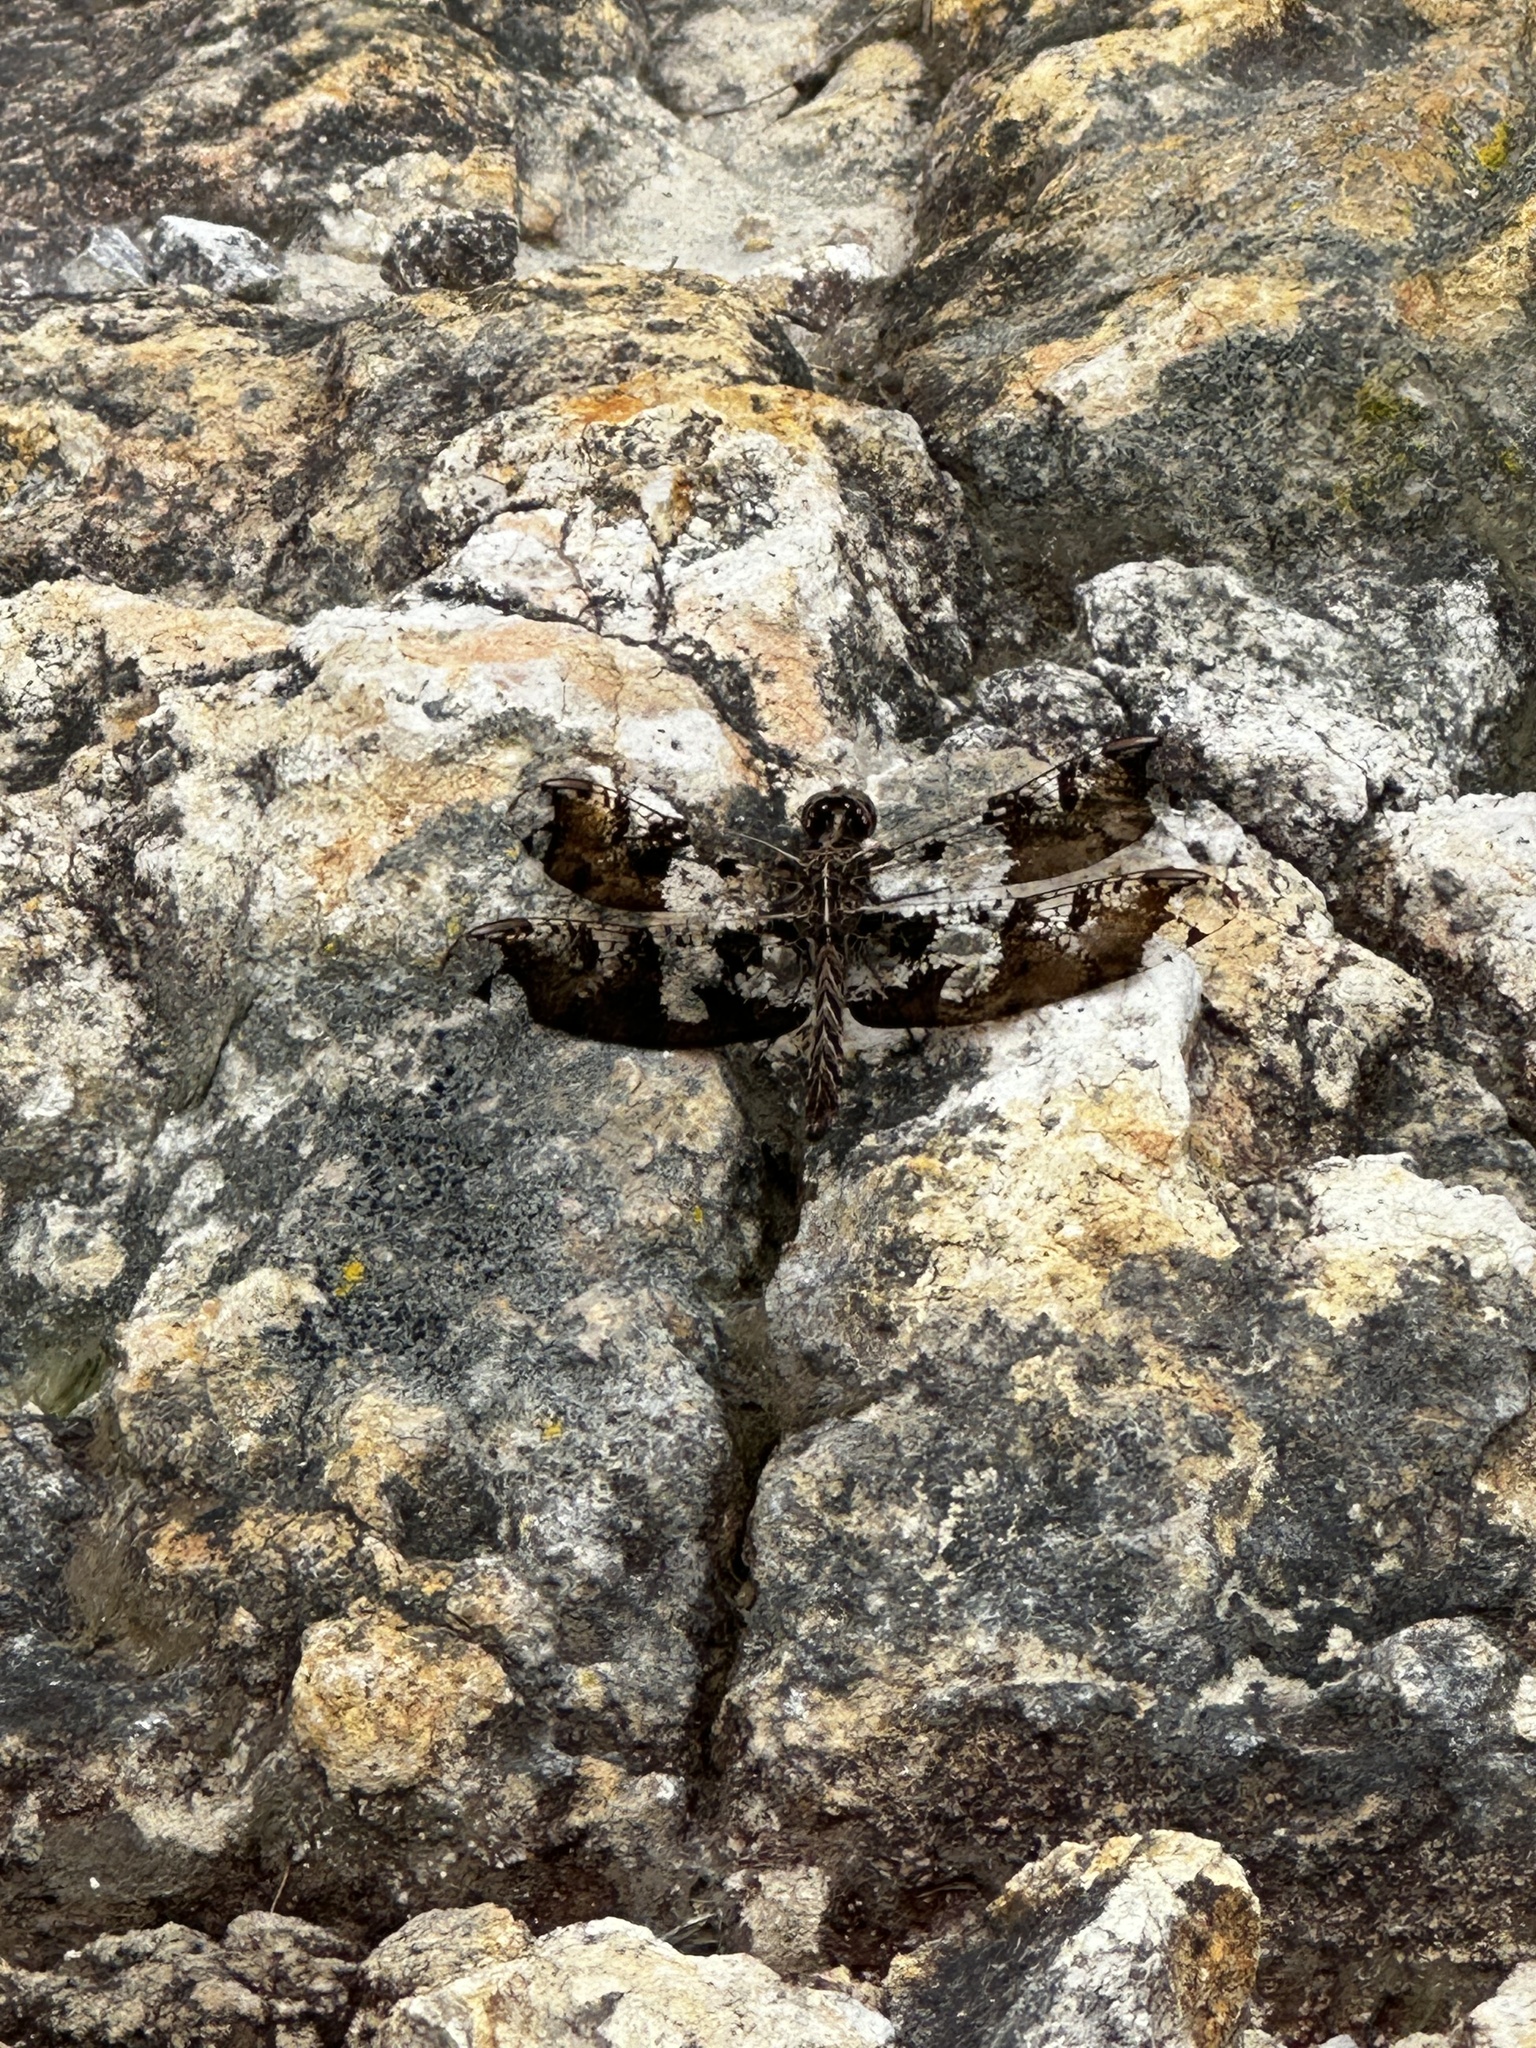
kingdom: Animalia
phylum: Arthropoda
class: Insecta
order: Odonata
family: Libellulidae
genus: Pseudoleon
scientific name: Pseudoleon superbus
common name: Filigree skimmer
